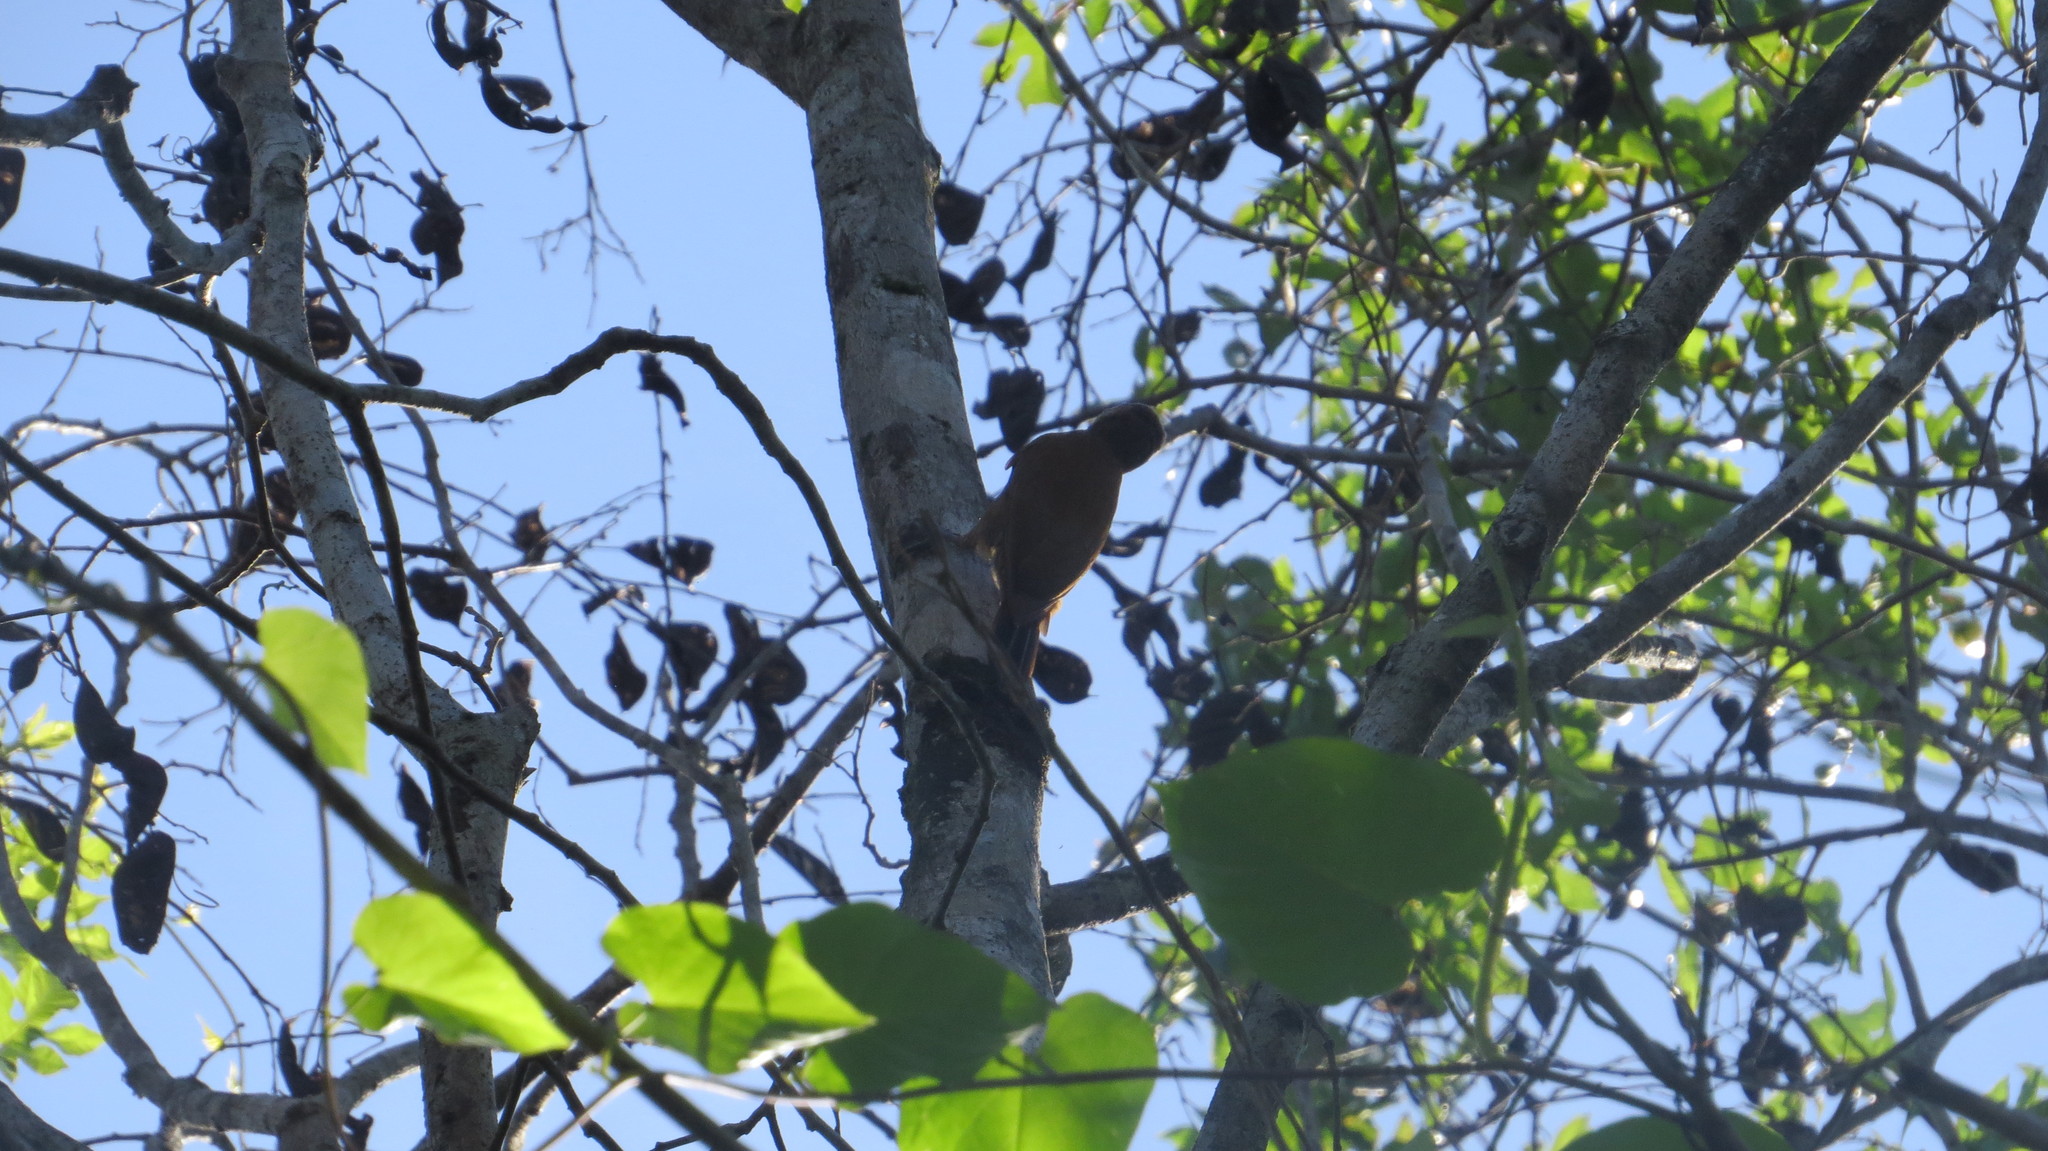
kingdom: Animalia
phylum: Chordata
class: Aves
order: Piciformes
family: Picidae
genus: Leuconotopicus
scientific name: Leuconotopicus fumigatus
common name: Smoky-brown woodpecker
